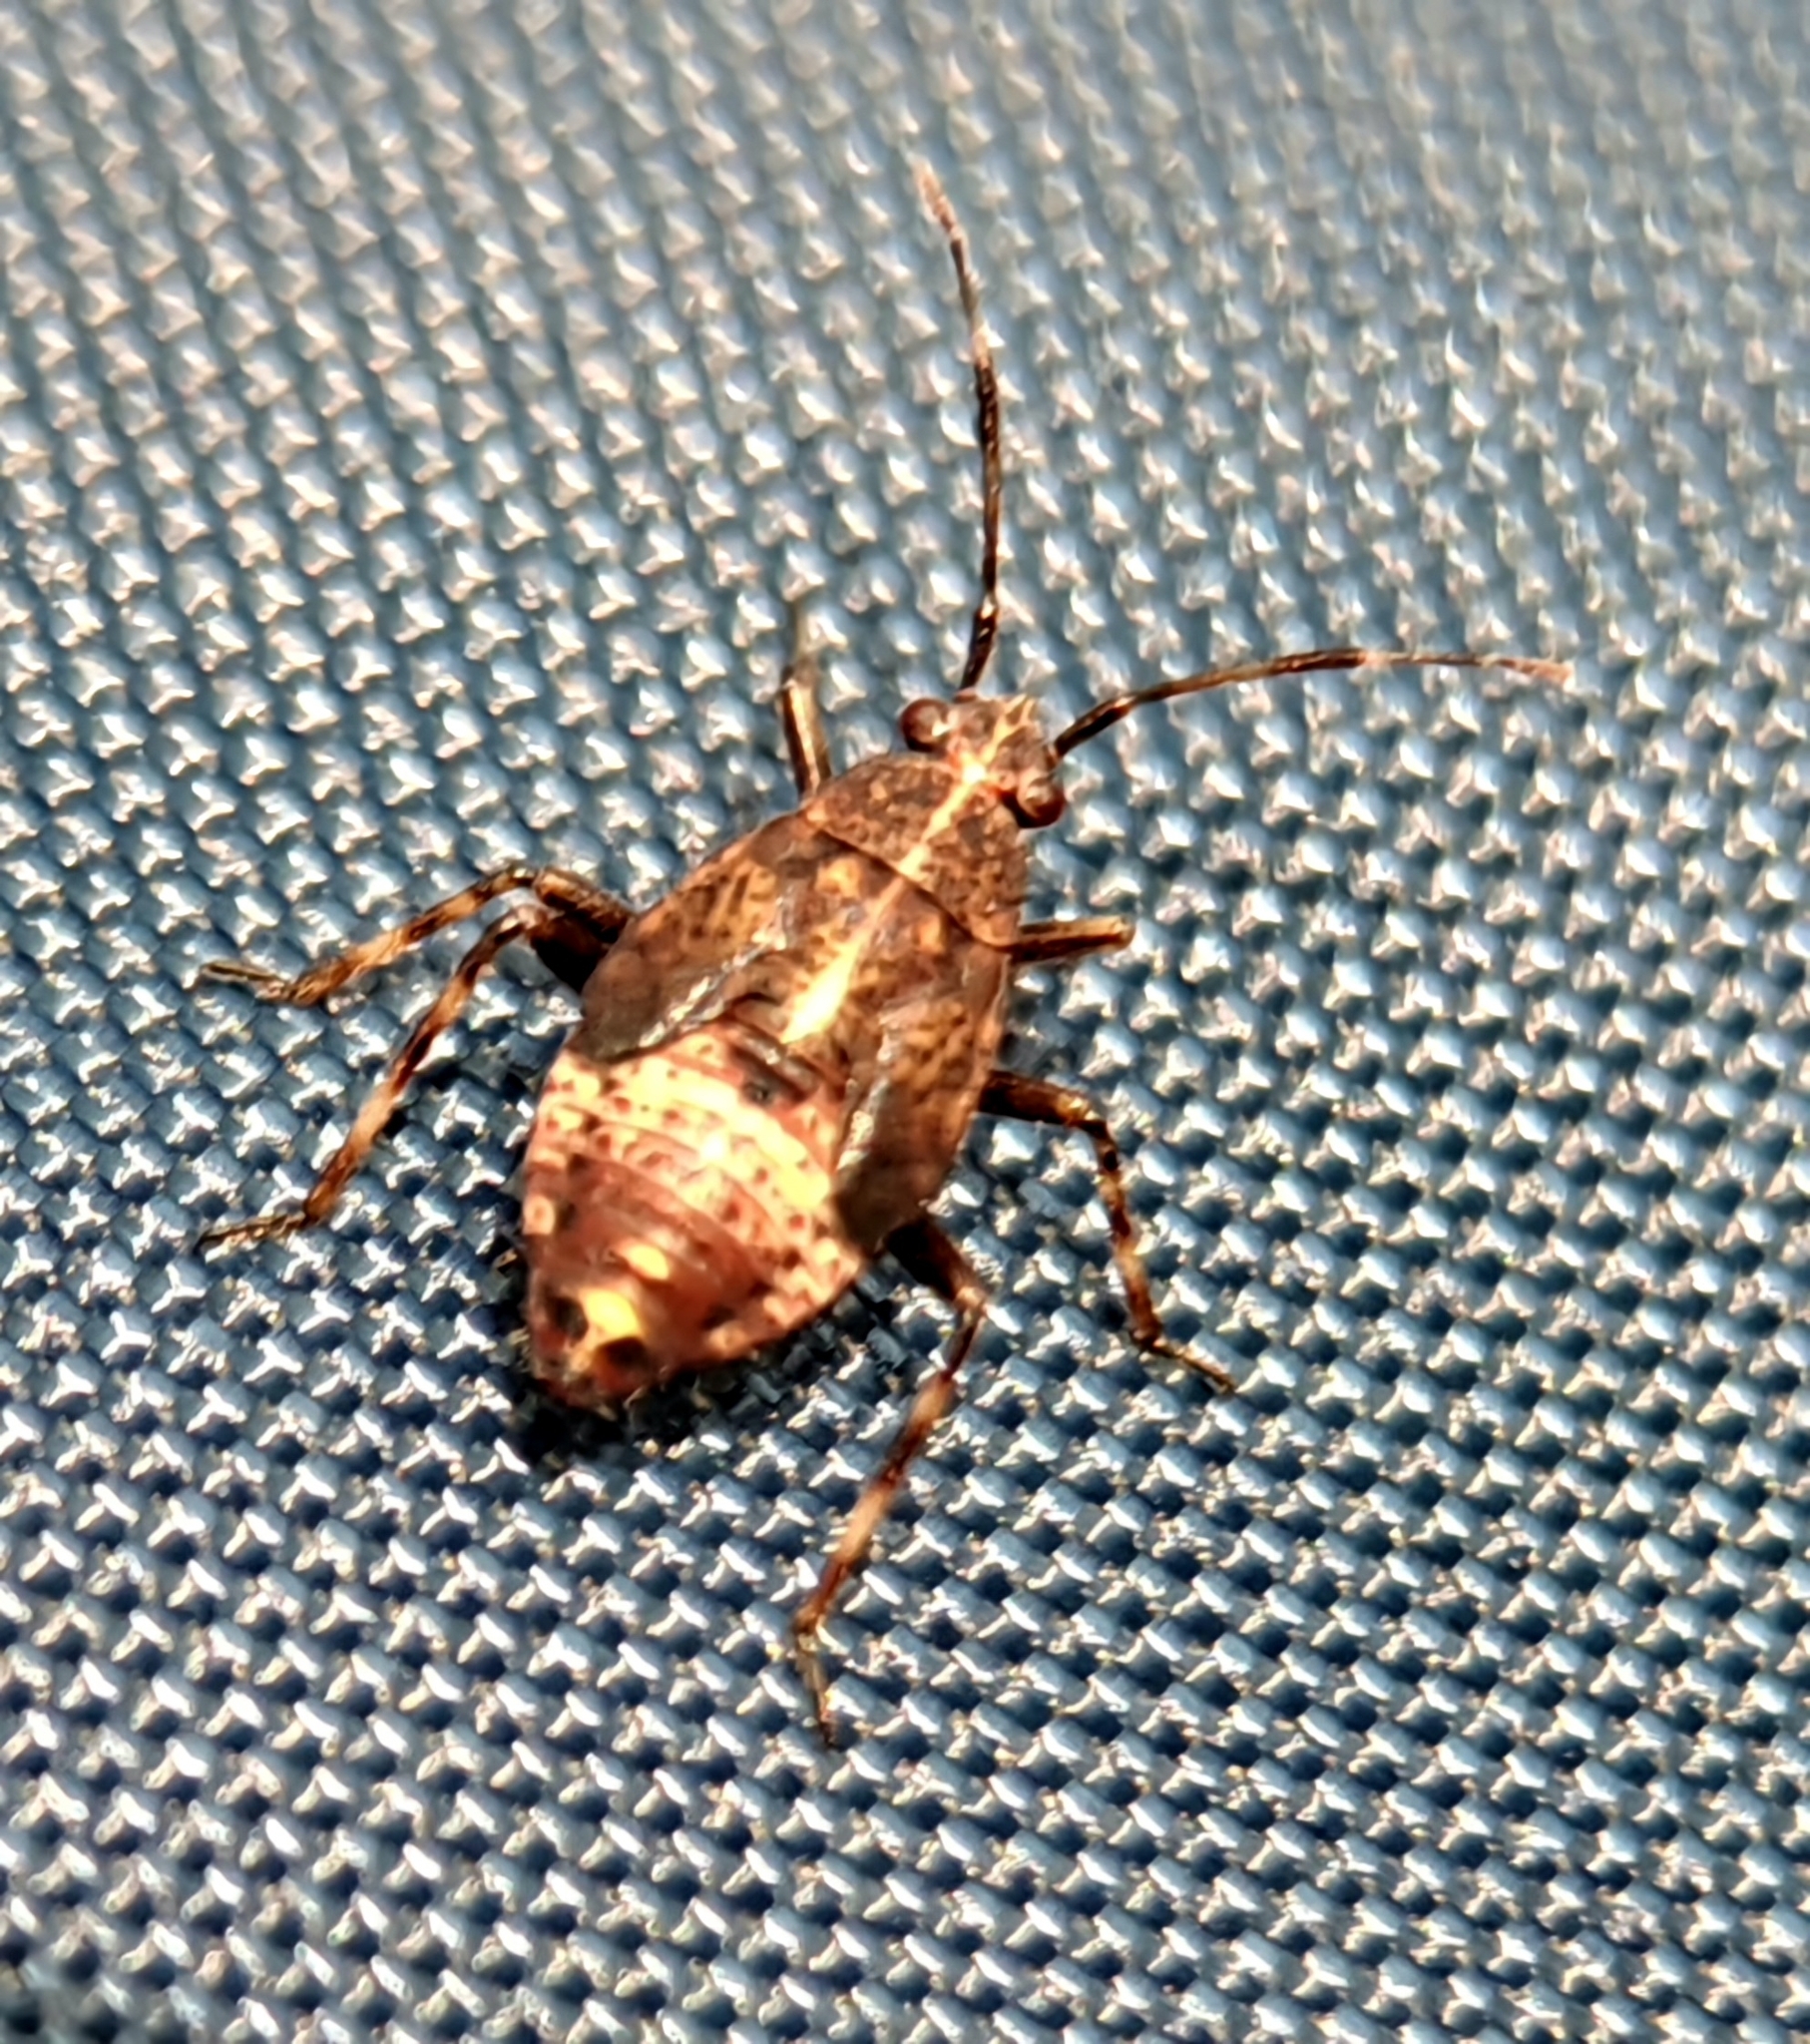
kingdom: Animalia
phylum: Arthropoda
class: Insecta
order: Hemiptera
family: Miridae
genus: Deraeocoris
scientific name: Deraeocoris flavilinea
